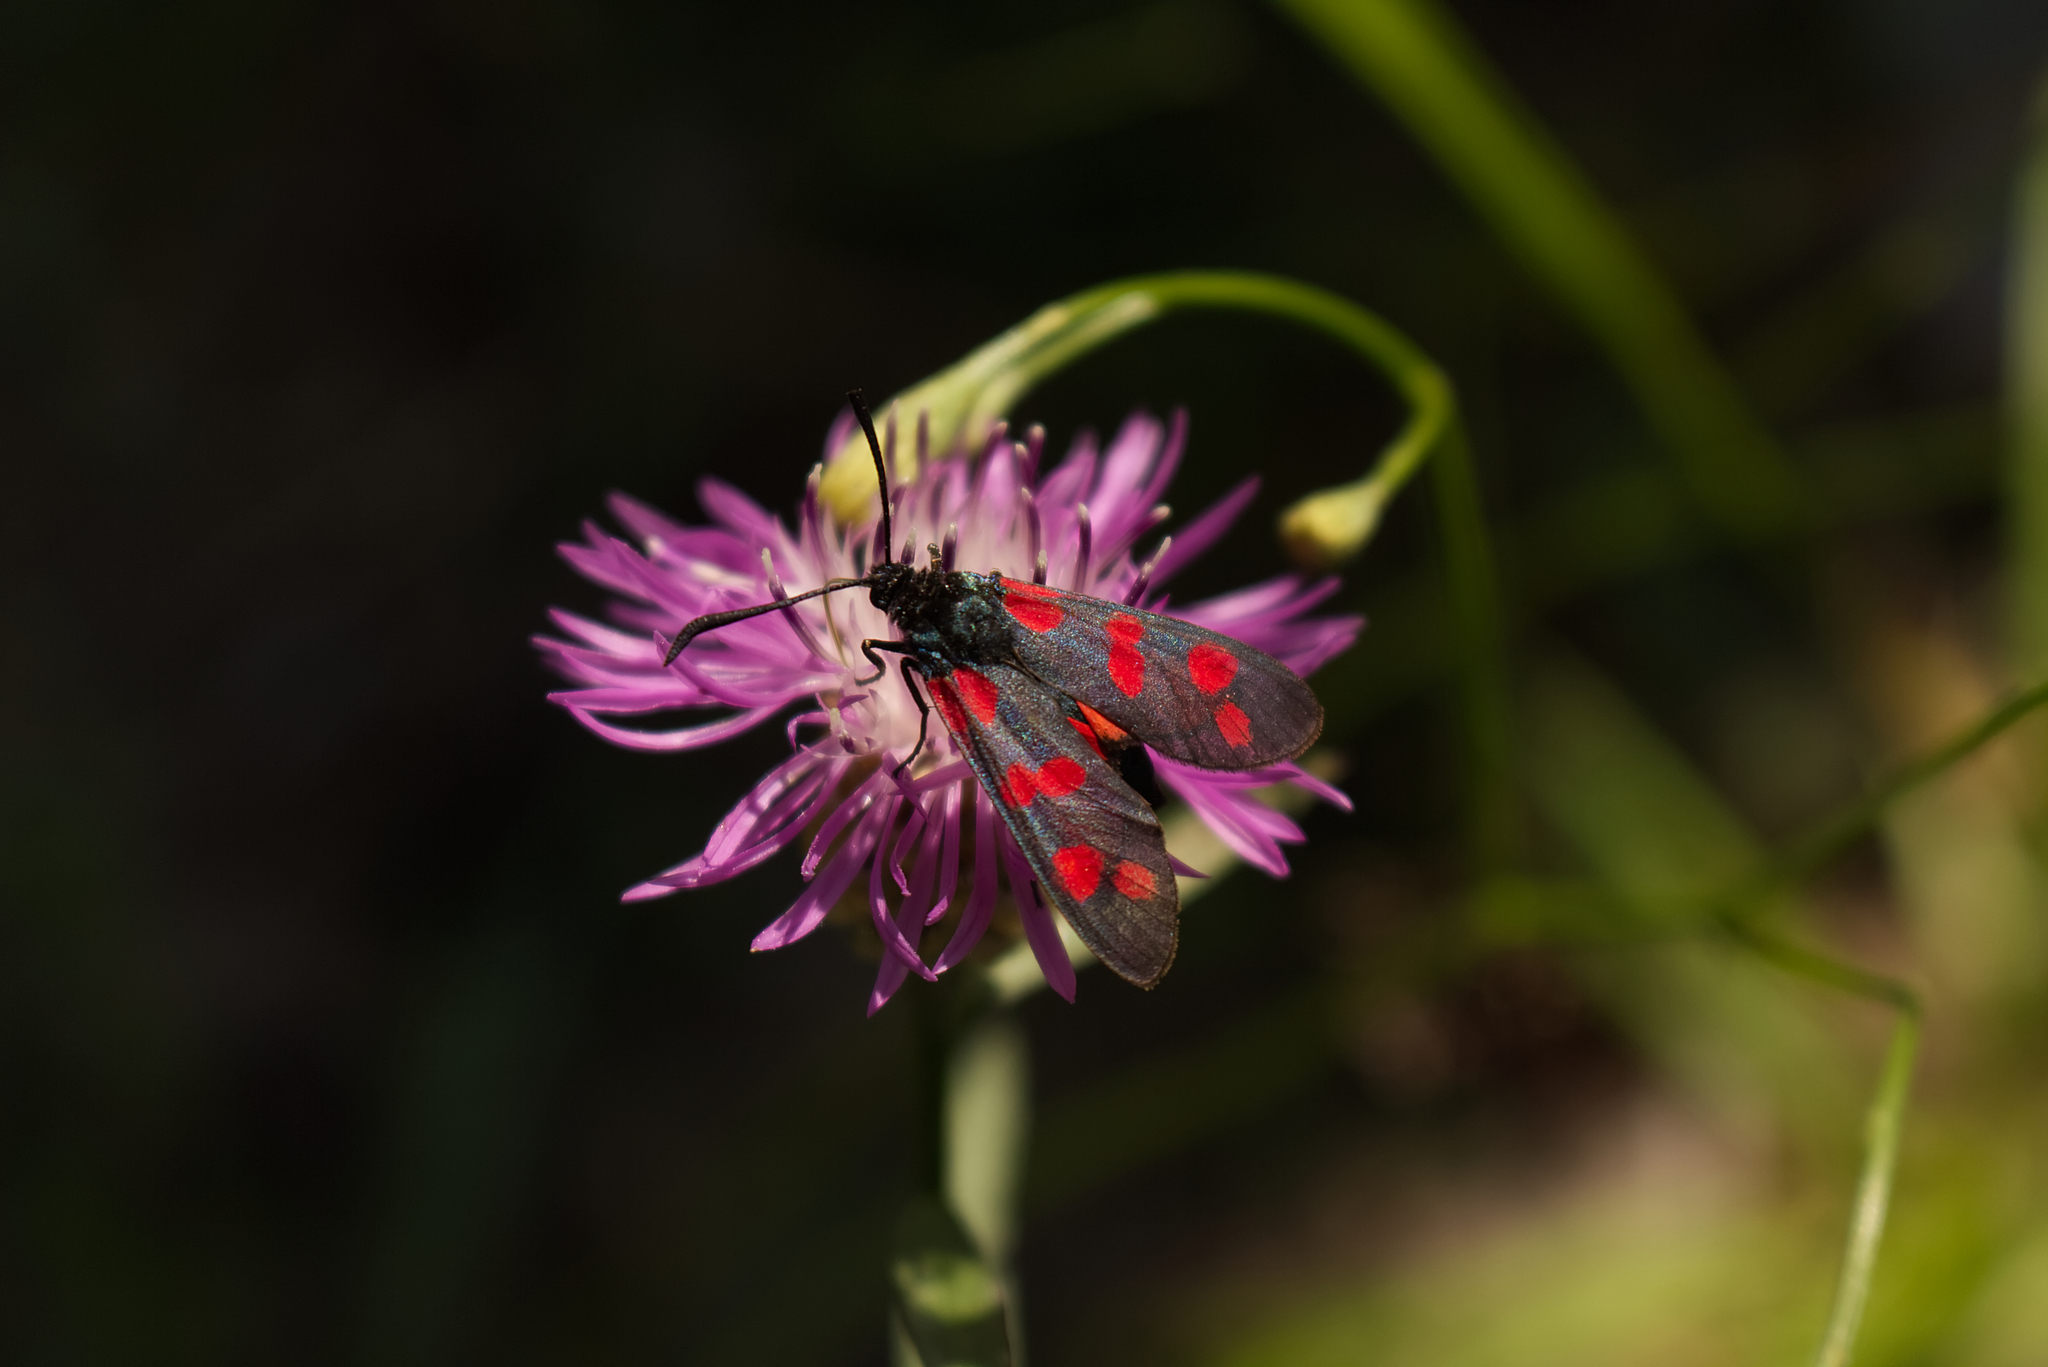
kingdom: Animalia
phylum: Arthropoda
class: Insecta
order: Lepidoptera
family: Zygaenidae
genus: Zygaena
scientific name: Zygaena filipendulae
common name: Six-spot burnet
